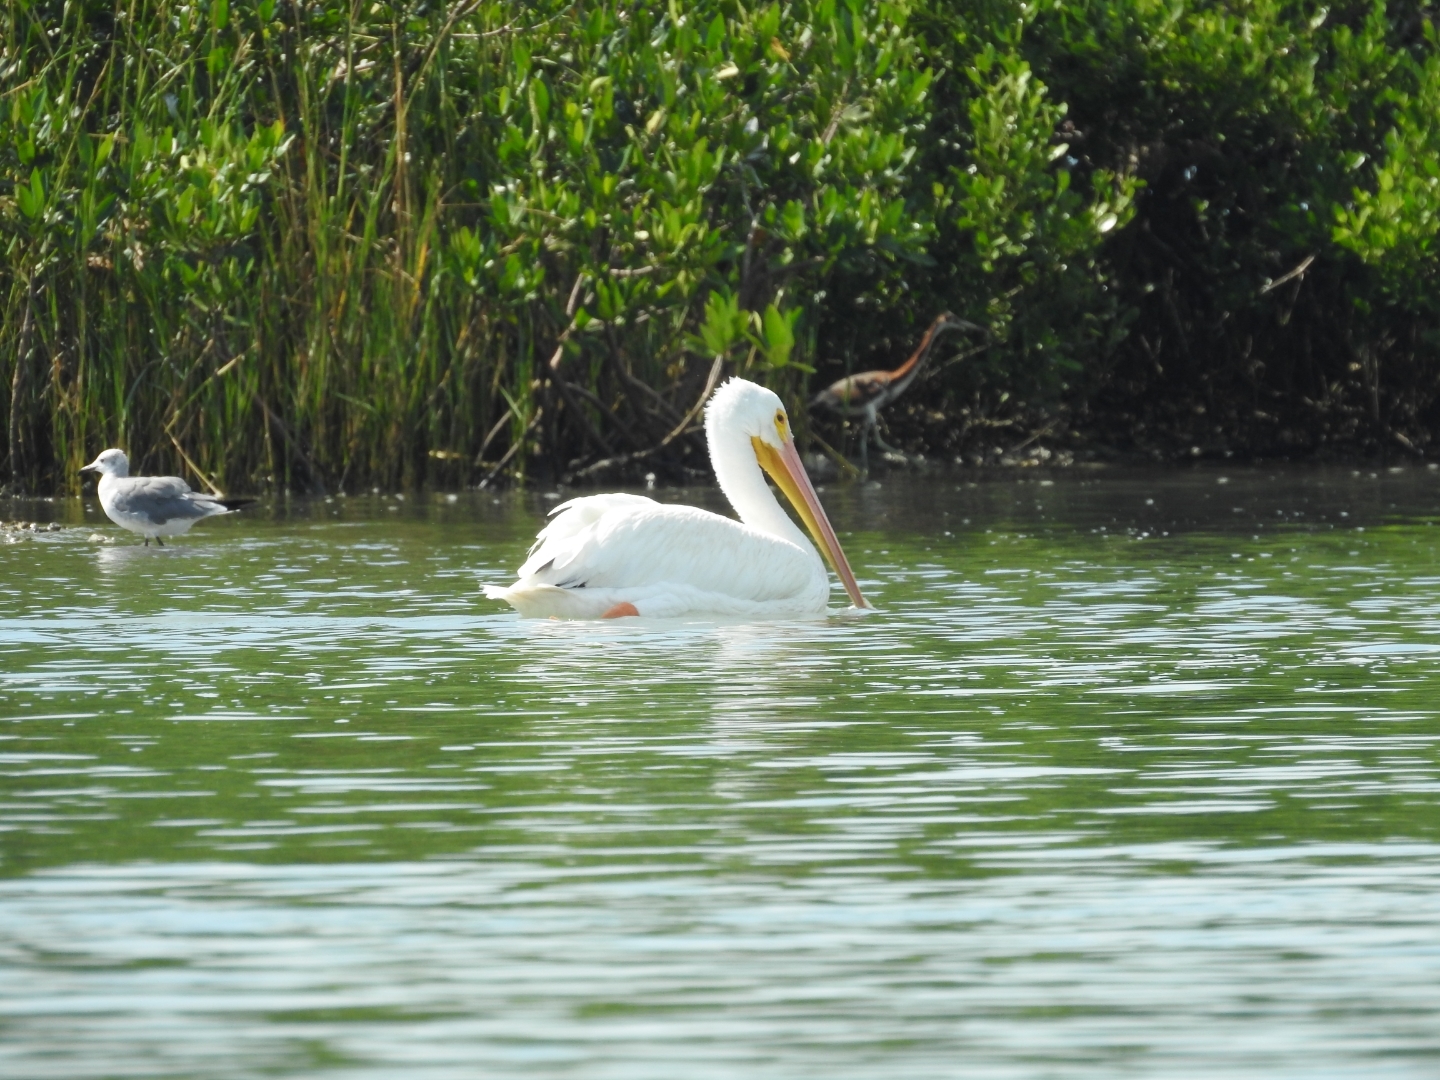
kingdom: Animalia
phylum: Chordata
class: Aves
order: Pelecaniformes
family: Pelecanidae
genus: Pelecanus
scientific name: Pelecanus erythrorhynchos
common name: American white pelican
